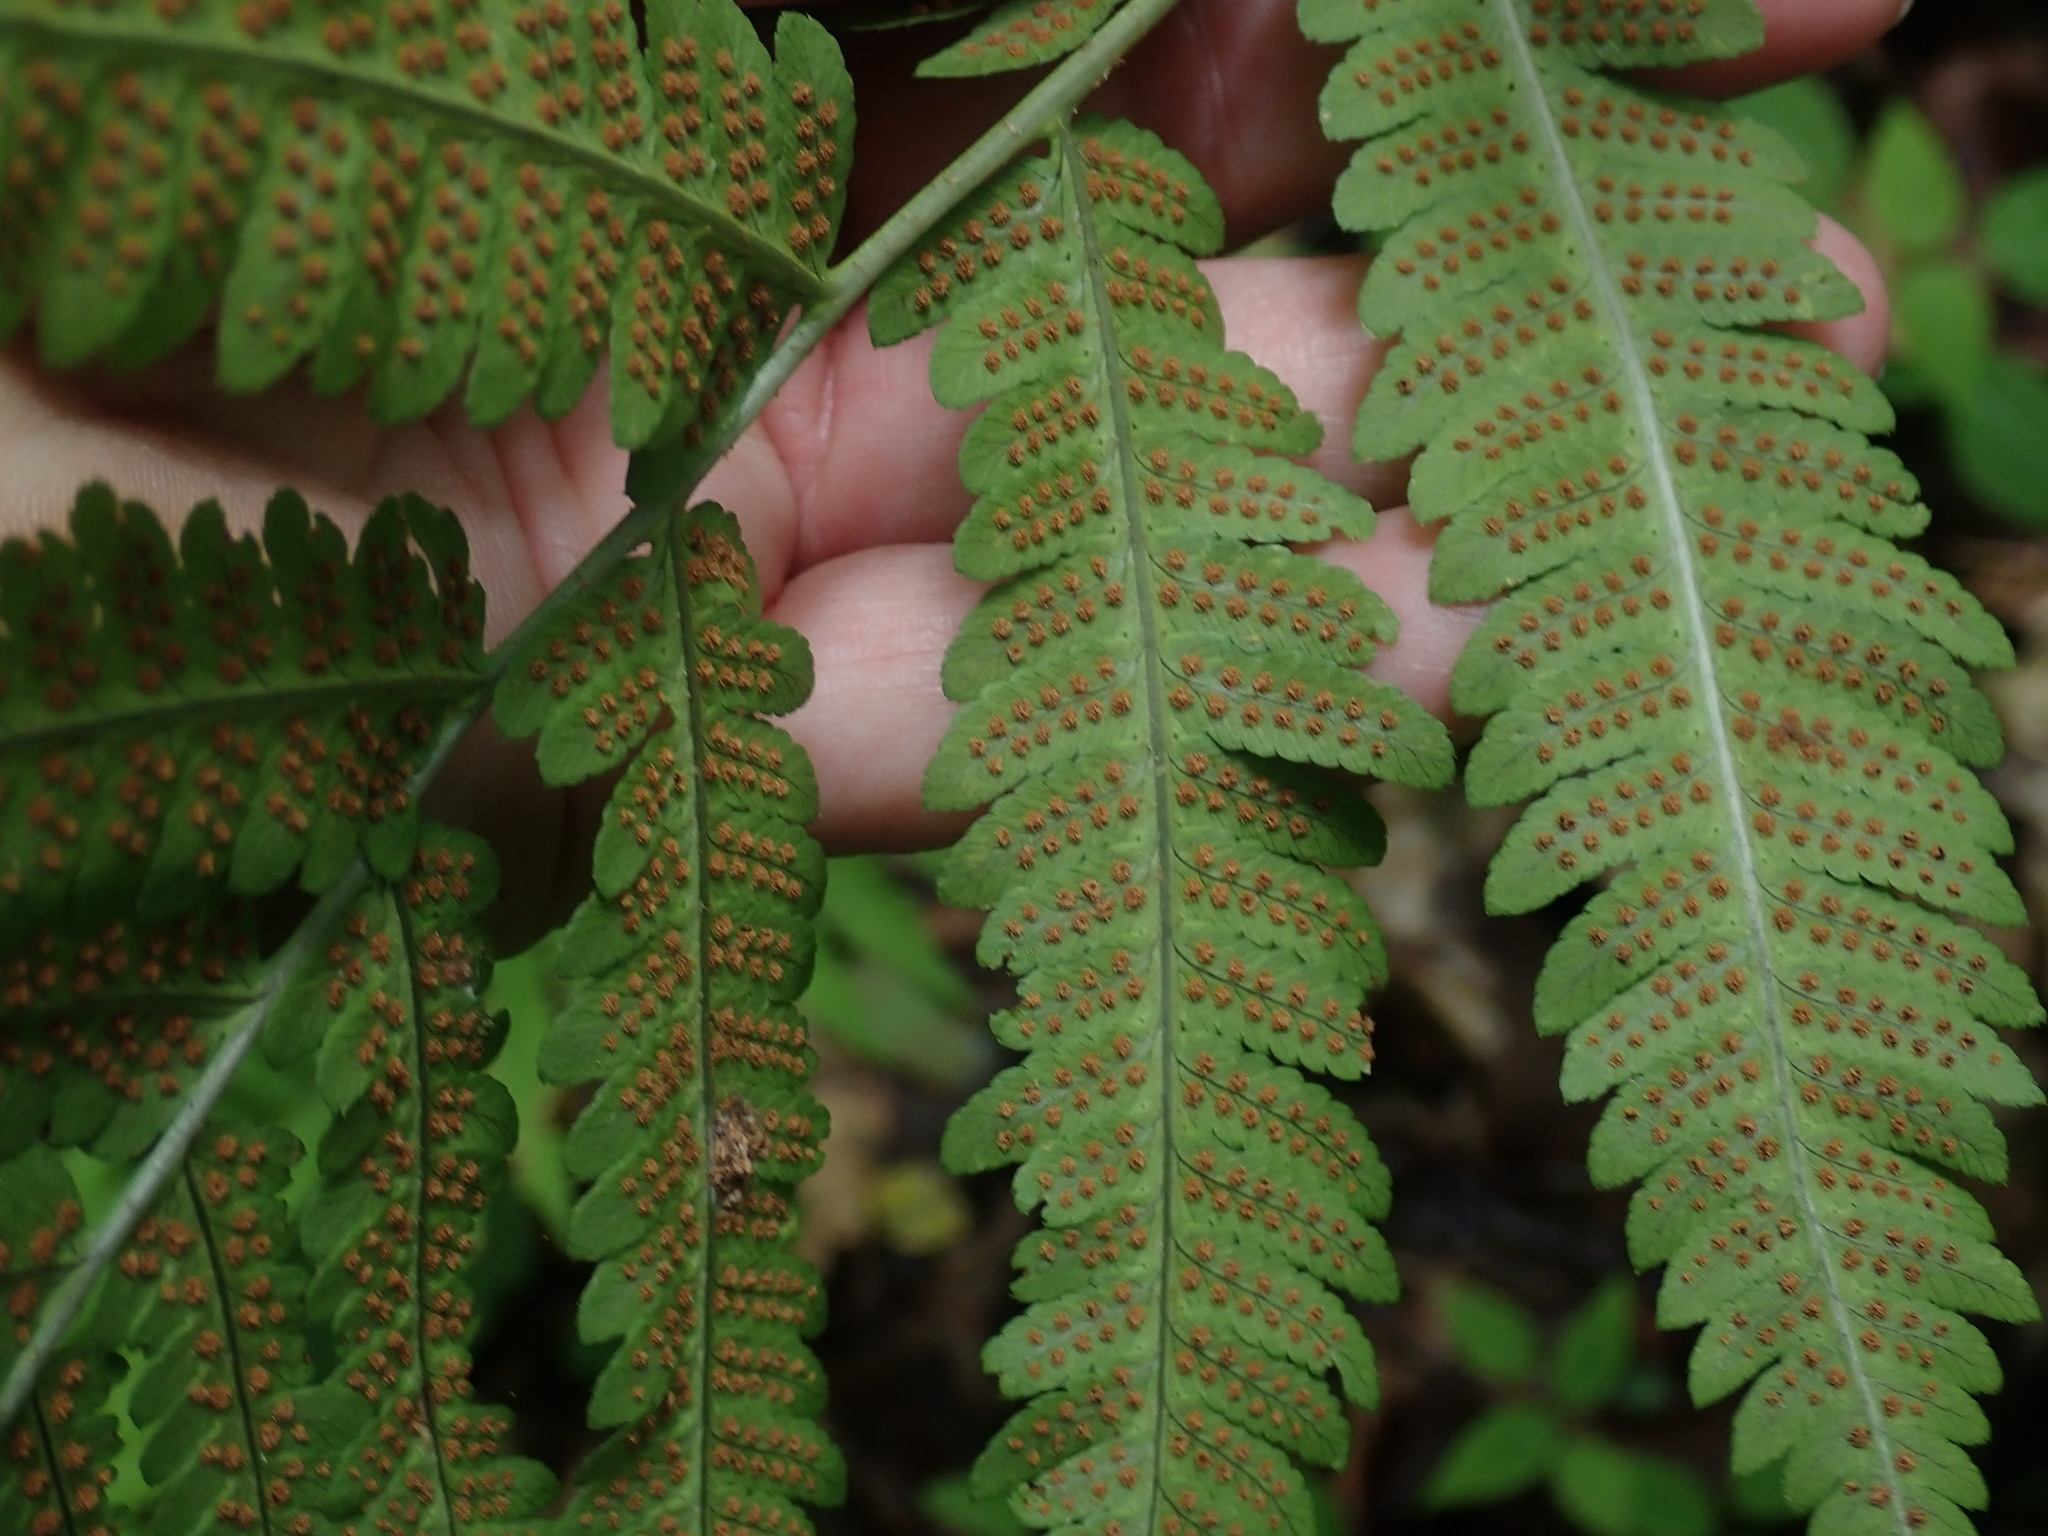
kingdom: Plantae
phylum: Tracheophyta
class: Polypodiopsida
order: Polypodiales
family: Dryopteridaceae
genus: Dryopteris
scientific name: Dryopteris goldieana
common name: Goldie's fern
